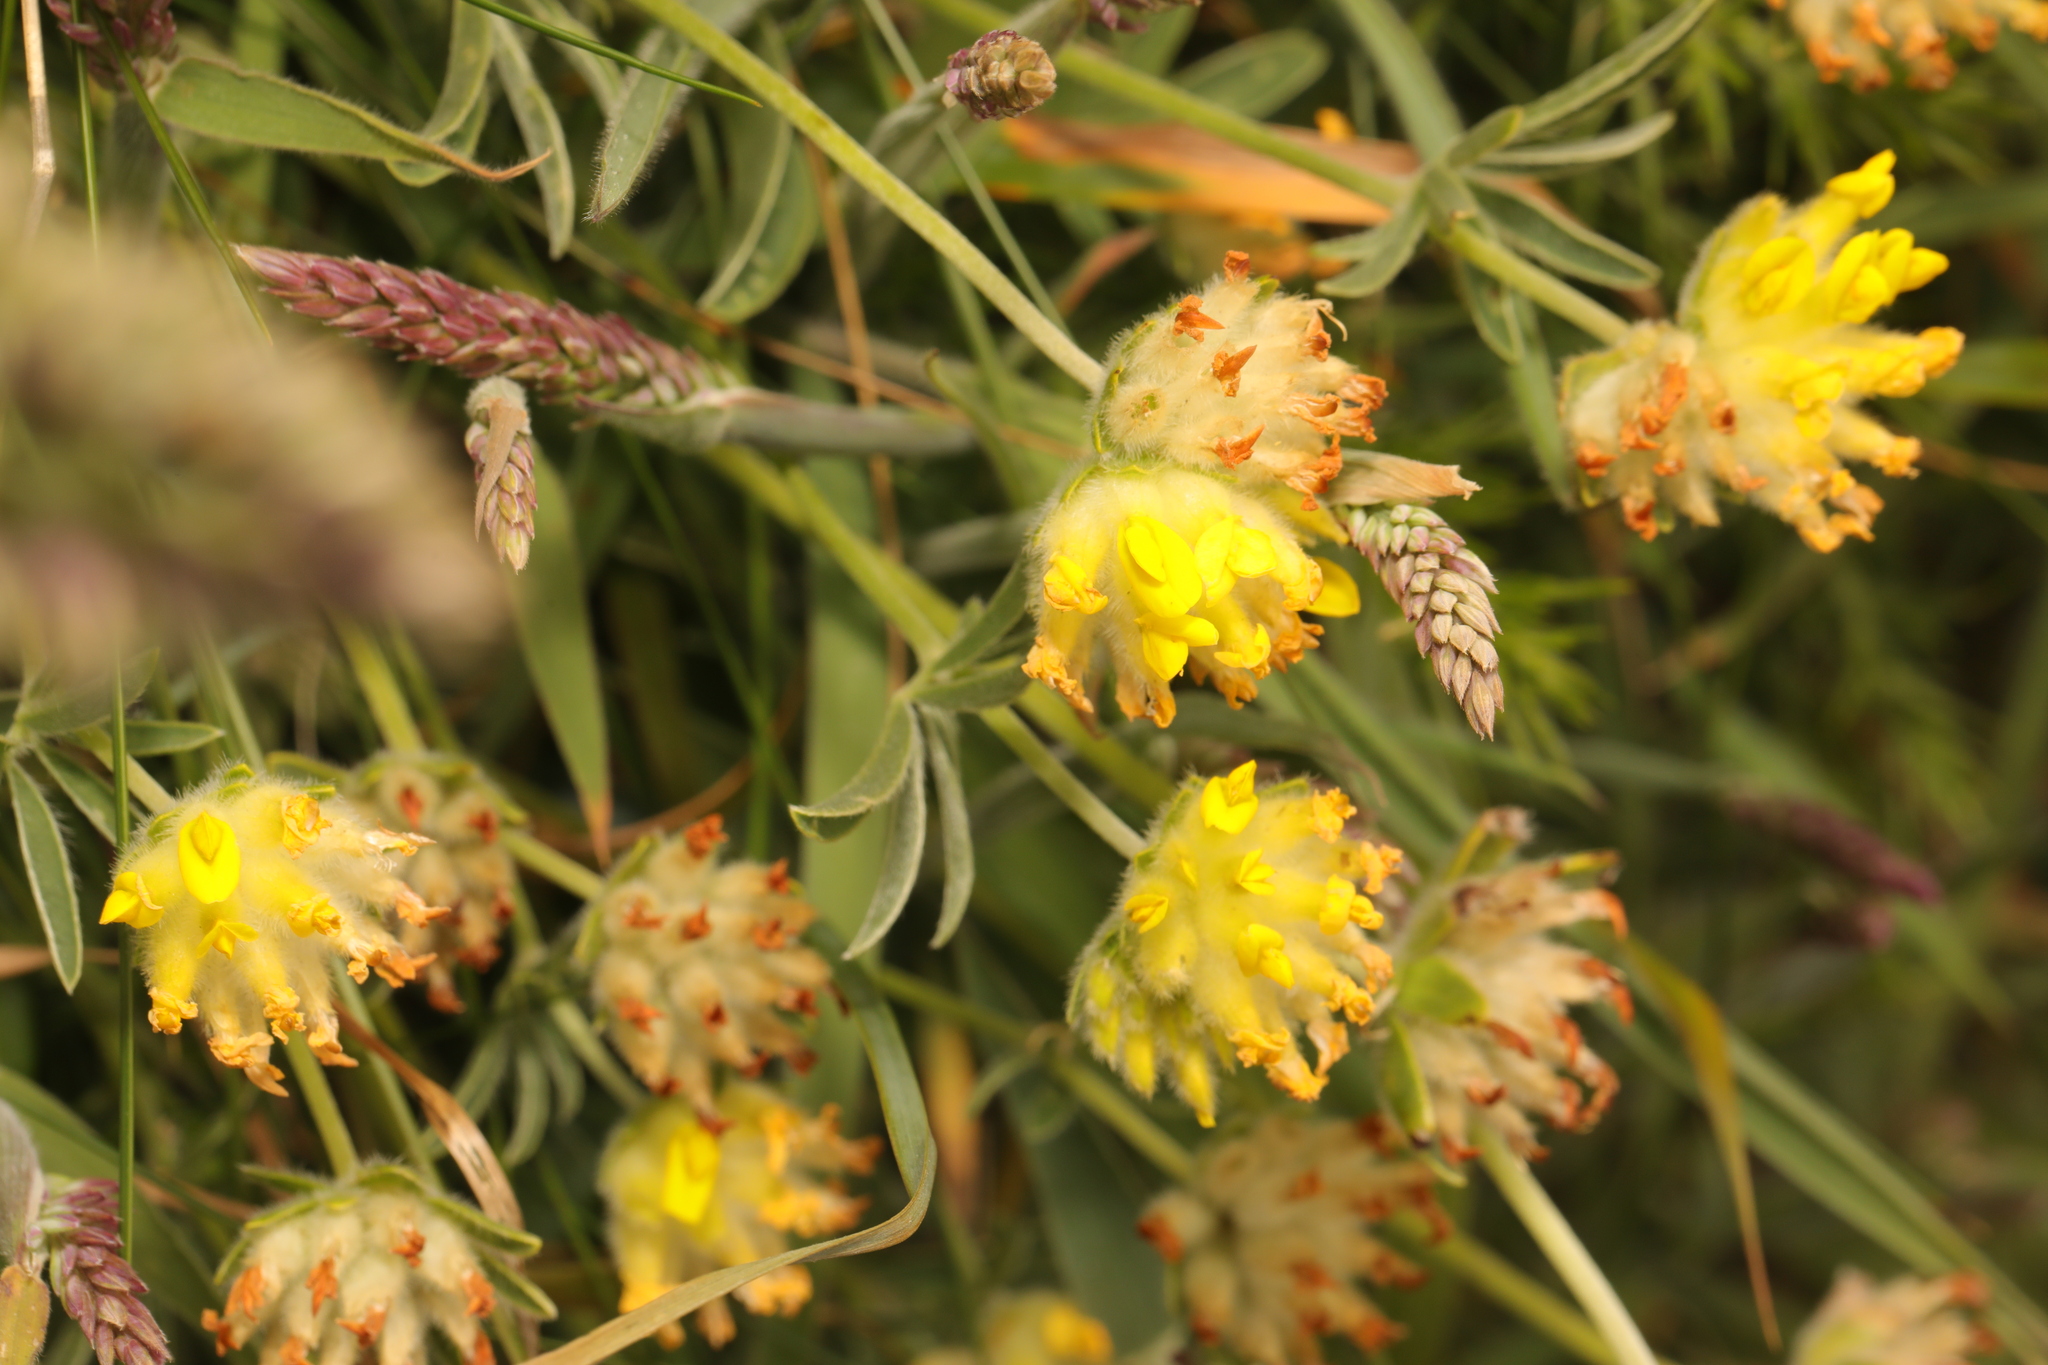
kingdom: Plantae
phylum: Tracheophyta
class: Magnoliopsida
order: Fabales
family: Fabaceae
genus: Anthyllis
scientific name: Anthyllis vulneraria
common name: Kidney vetch
